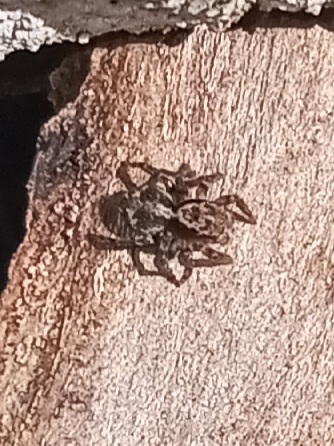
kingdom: Animalia
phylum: Arthropoda
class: Arachnida
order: Araneae
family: Salticidae
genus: Naphrys
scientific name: Naphrys pulex
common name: Flea jumping spider
